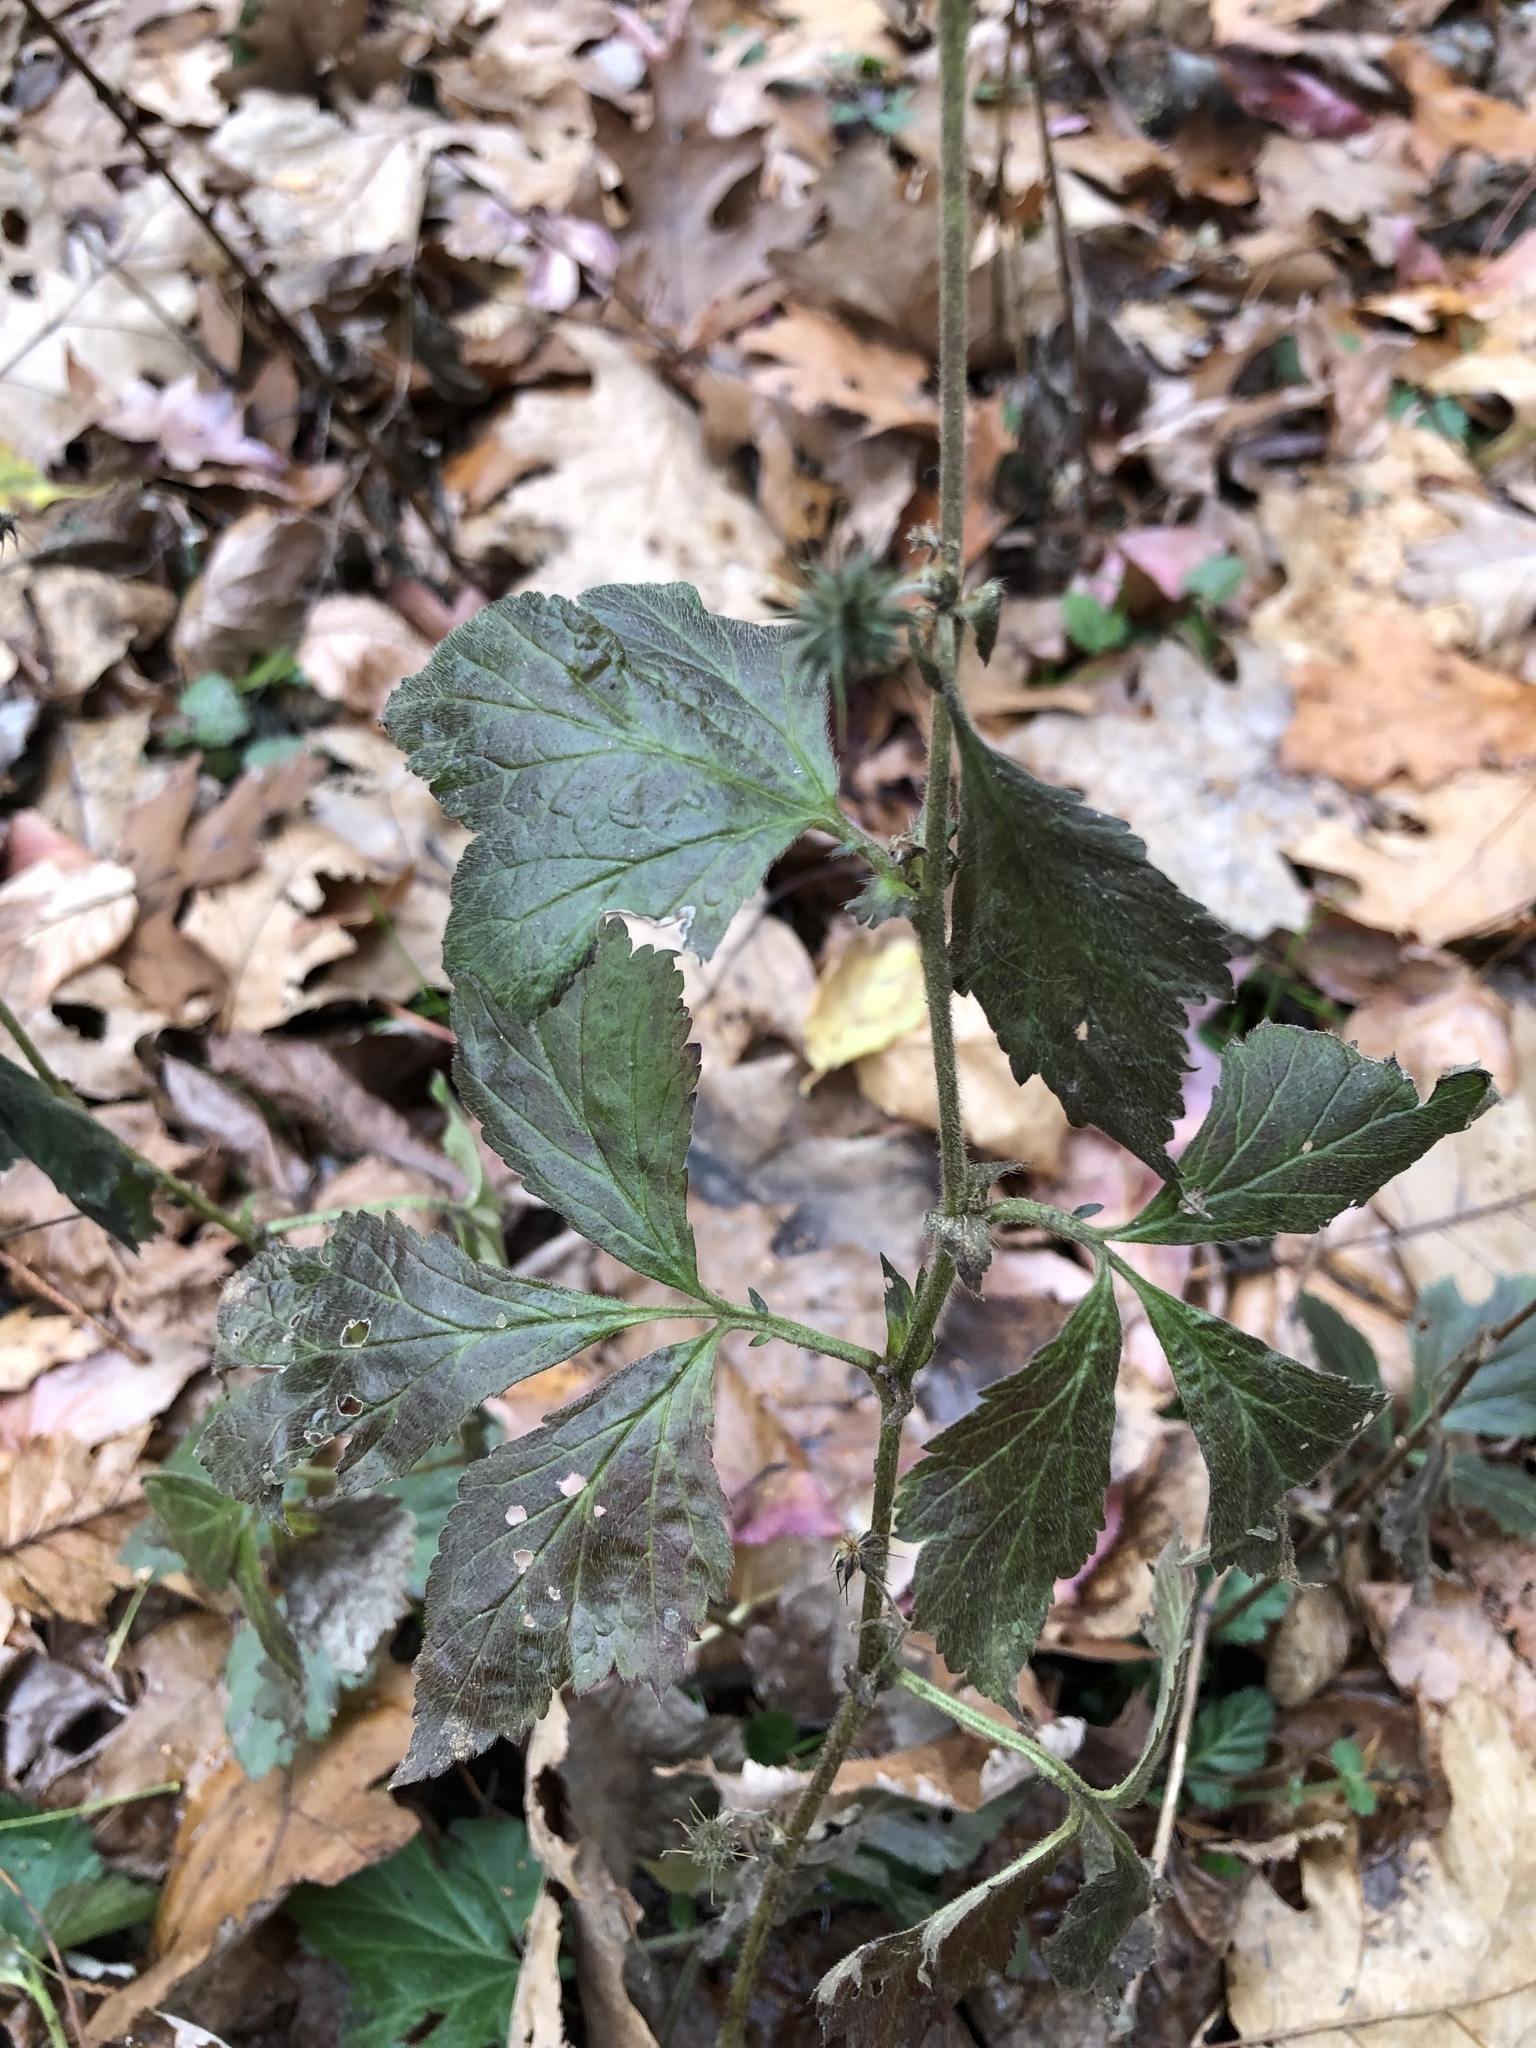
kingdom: Plantae
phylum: Tracheophyta
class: Magnoliopsida
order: Rosales
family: Rosaceae
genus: Geum
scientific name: Geum canadense
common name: White avens
